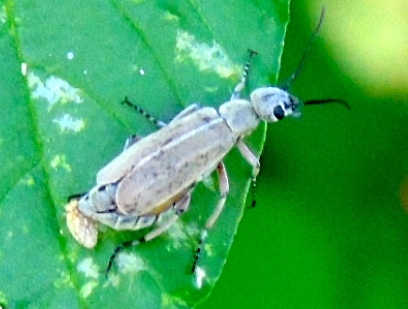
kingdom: Animalia
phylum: Arthropoda
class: Insecta
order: Coleoptera
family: Meloidae
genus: Epicauta
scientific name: Epicauta cupraeola
